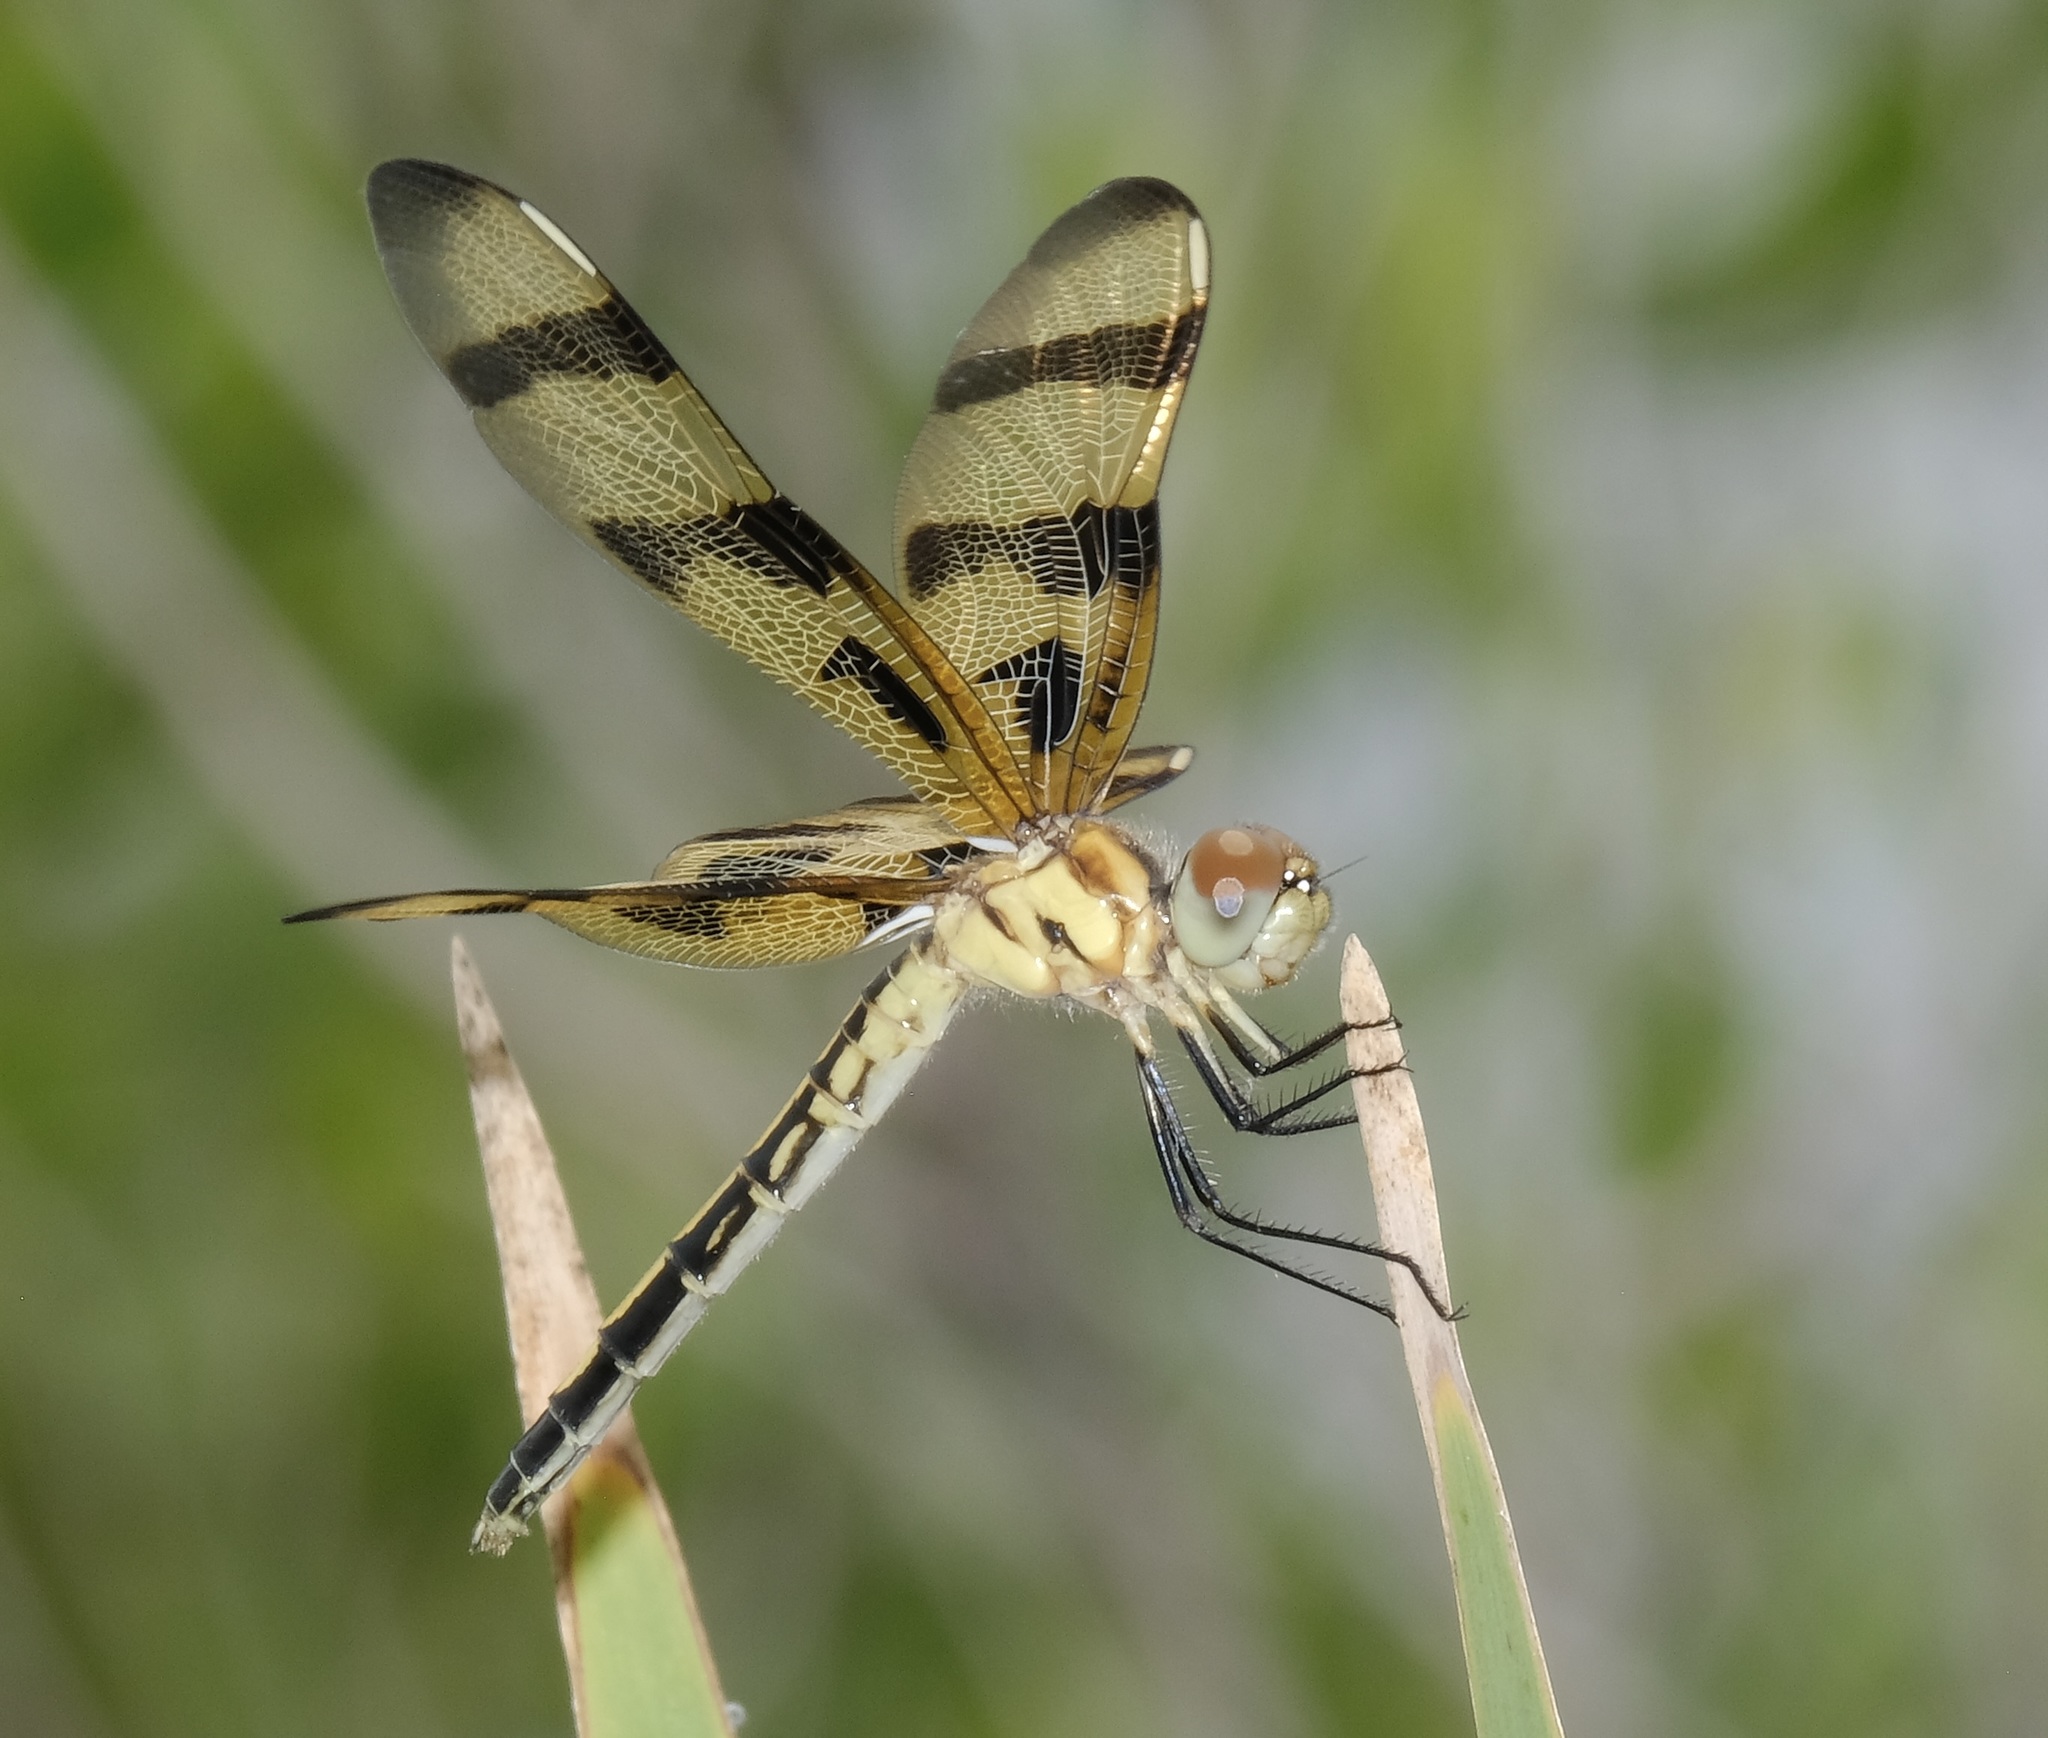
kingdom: Animalia
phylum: Arthropoda
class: Insecta
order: Odonata
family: Libellulidae
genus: Celithemis
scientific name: Celithemis eponina
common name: Halloween pennant
